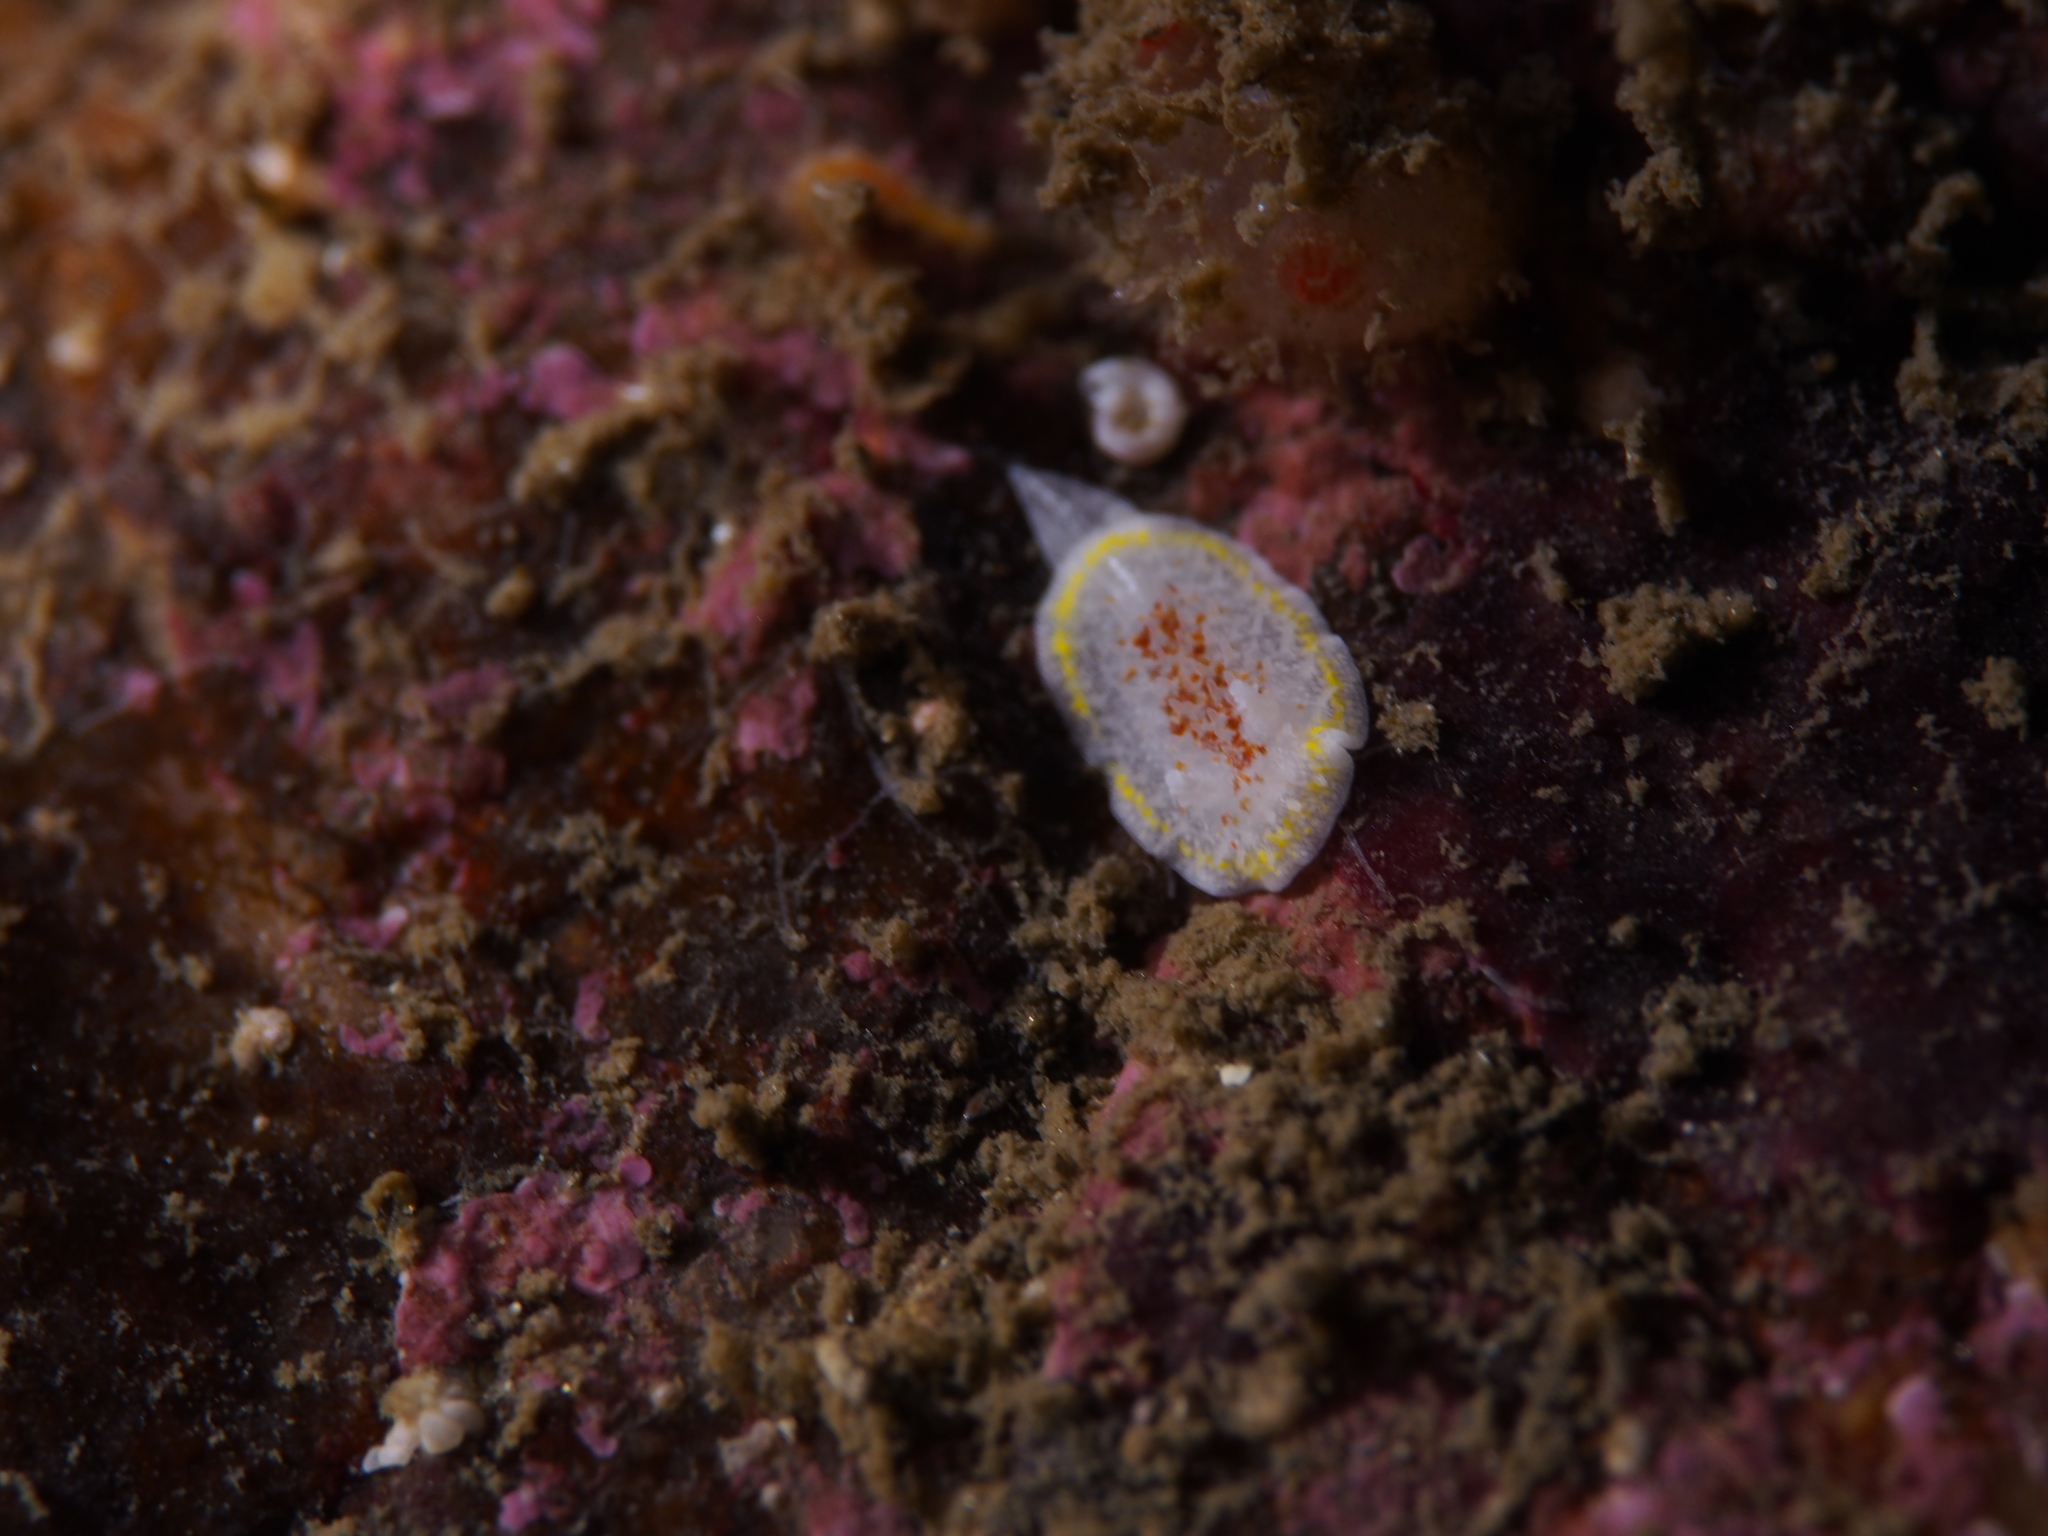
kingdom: Animalia
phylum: Mollusca
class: Gastropoda
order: Nudibranchia
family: Calycidorididae
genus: Diaphorodoris
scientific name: Diaphorodoris luteocincta
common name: Fried egg nudibranch
